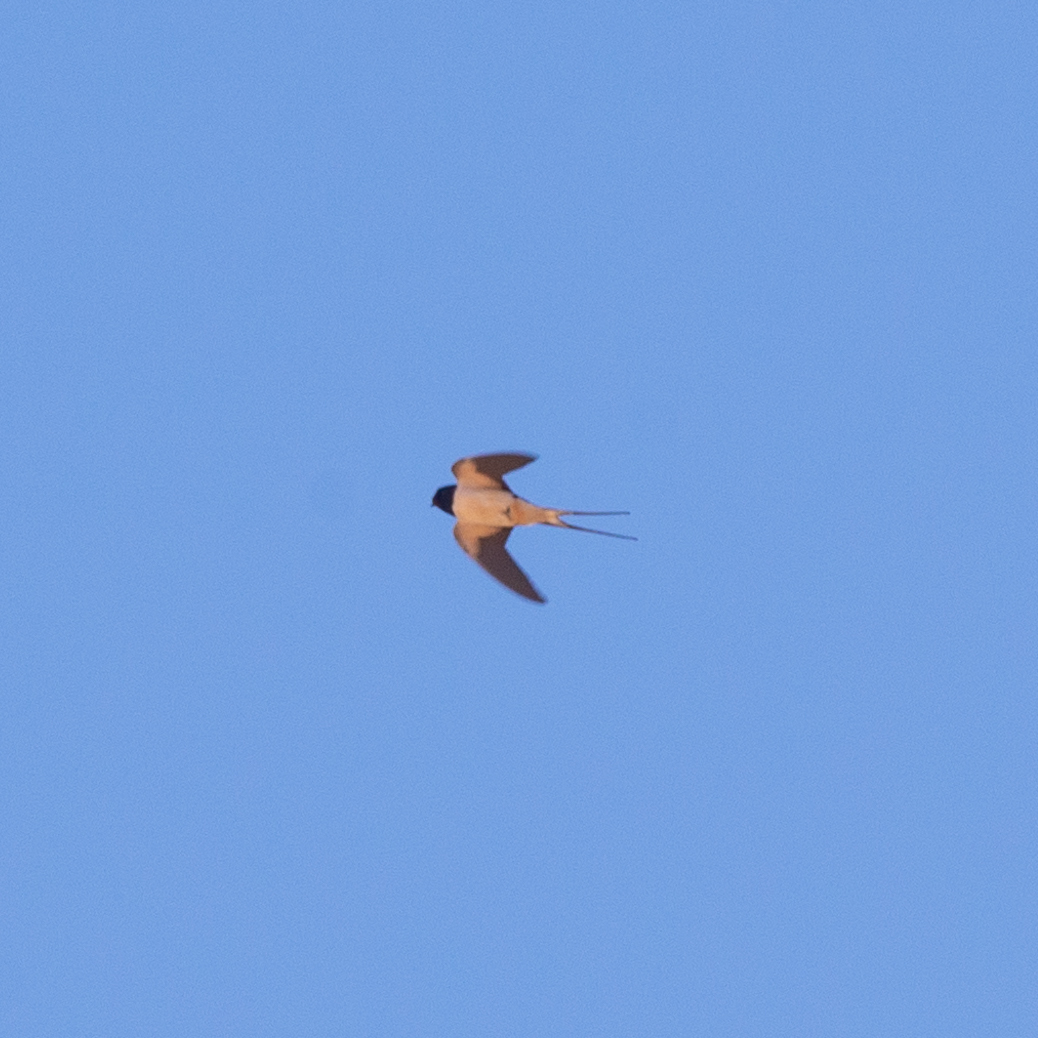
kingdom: Animalia
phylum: Chordata
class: Aves
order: Passeriformes
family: Hirundinidae
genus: Hirundo
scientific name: Hirundo rustica
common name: Barn swallow
